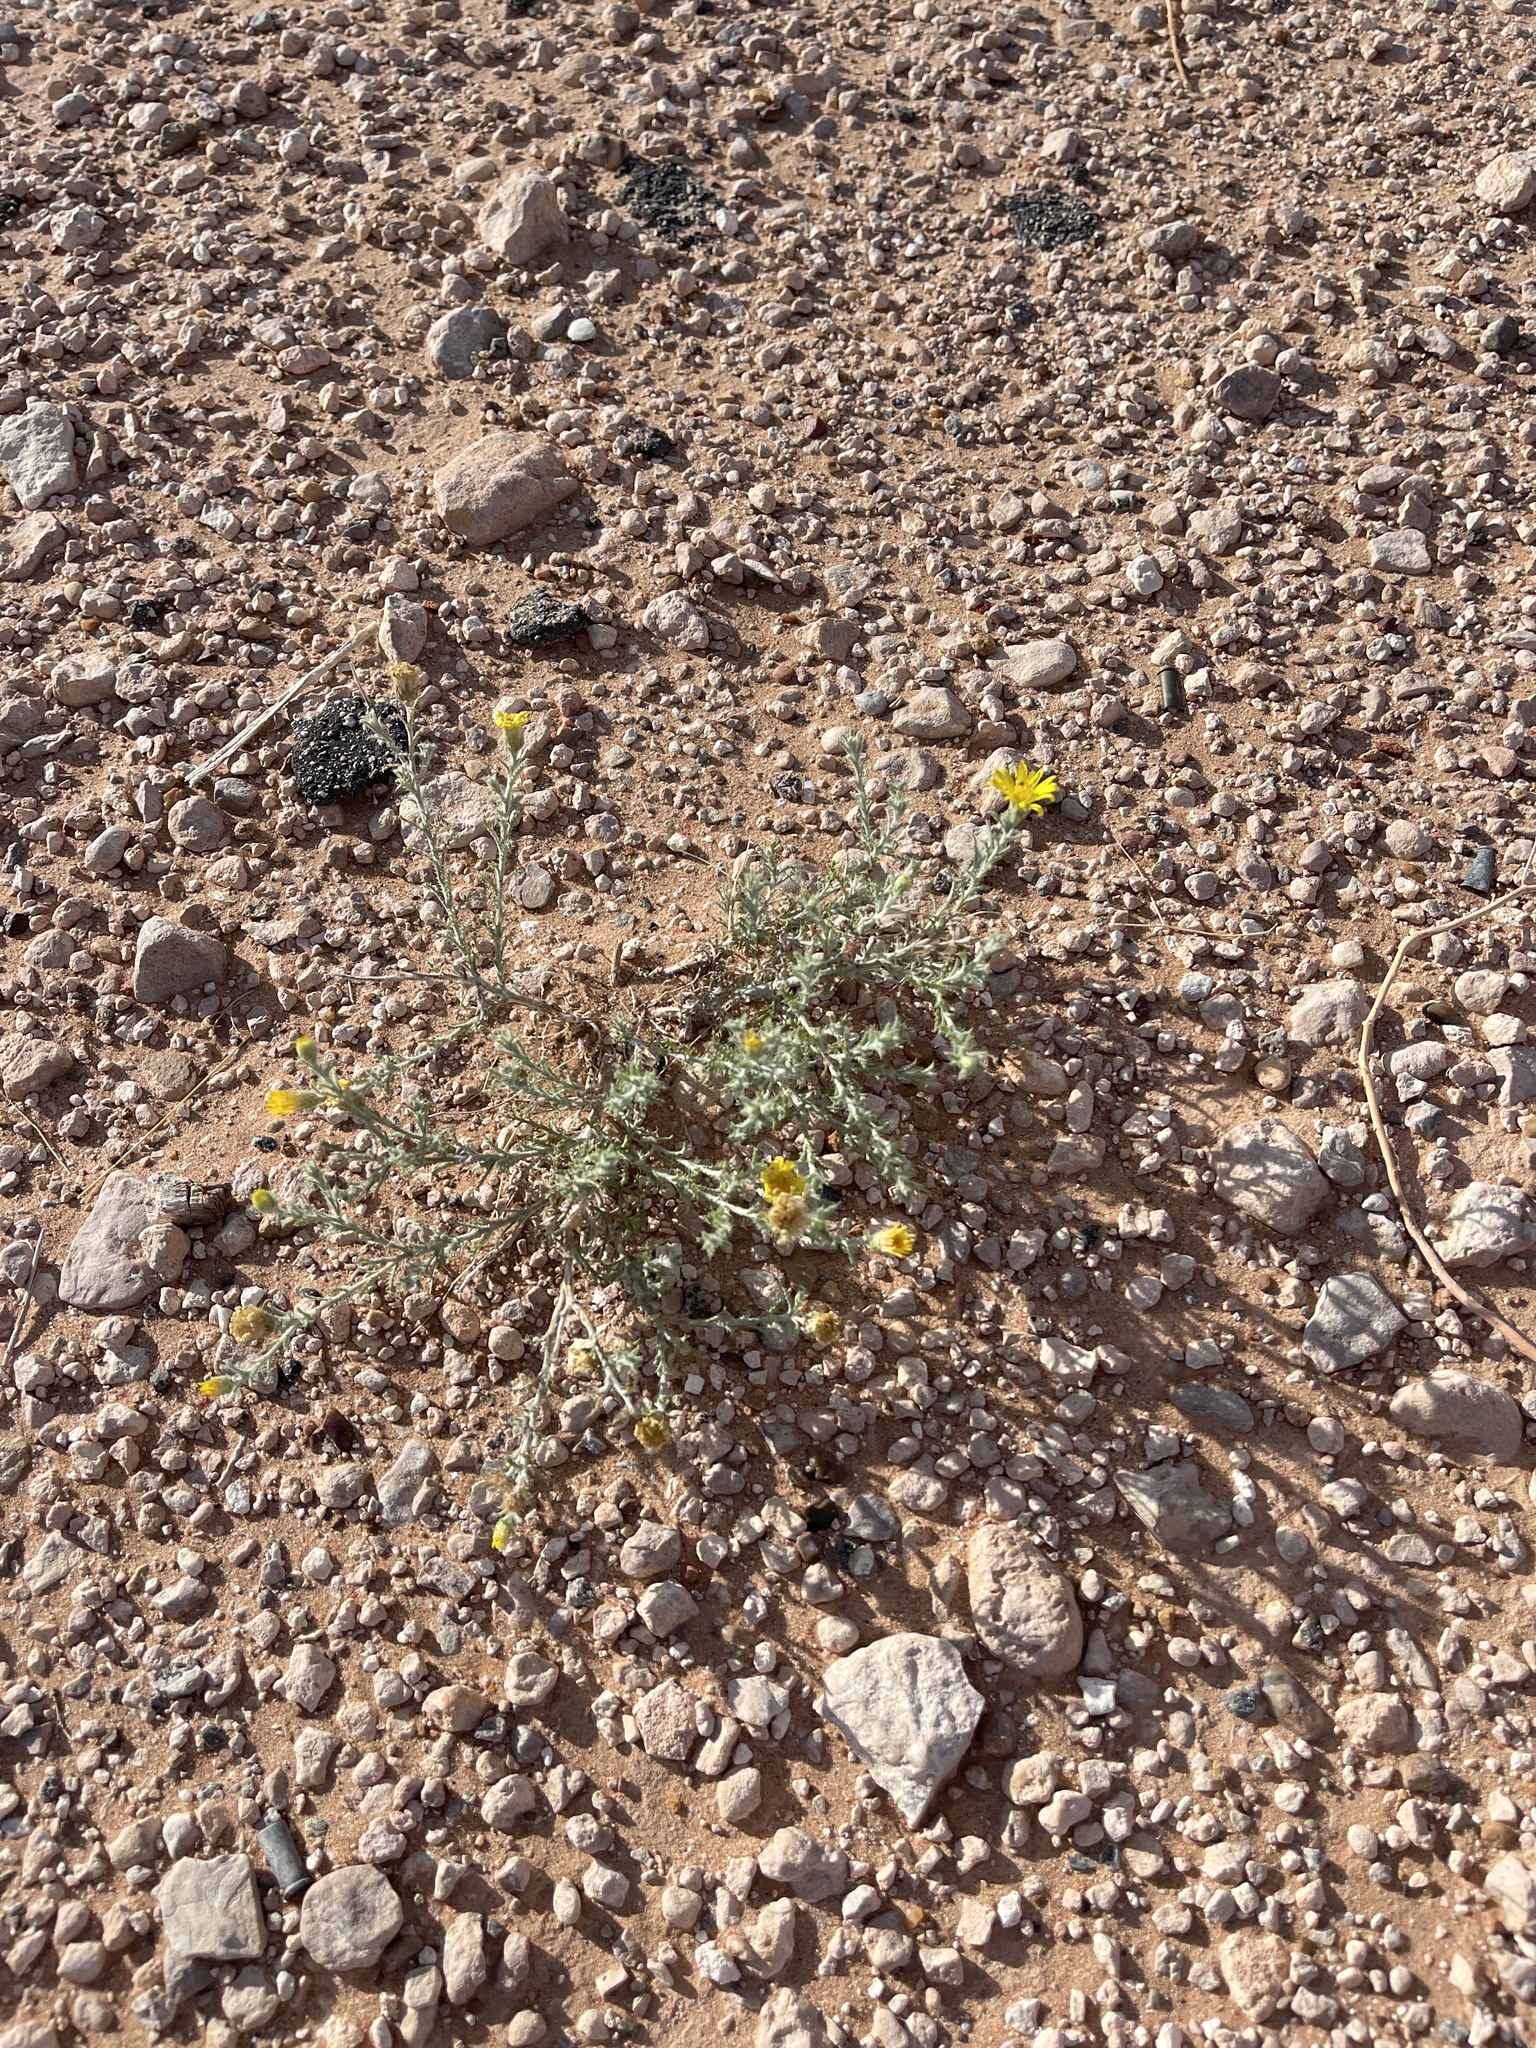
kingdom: Plantae
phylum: Tracheophyta
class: Magnoliopsida
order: Asterales
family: Asteraceae
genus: Xanthisma
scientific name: Xanthisma spinulosum
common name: Spiny goldenweed
